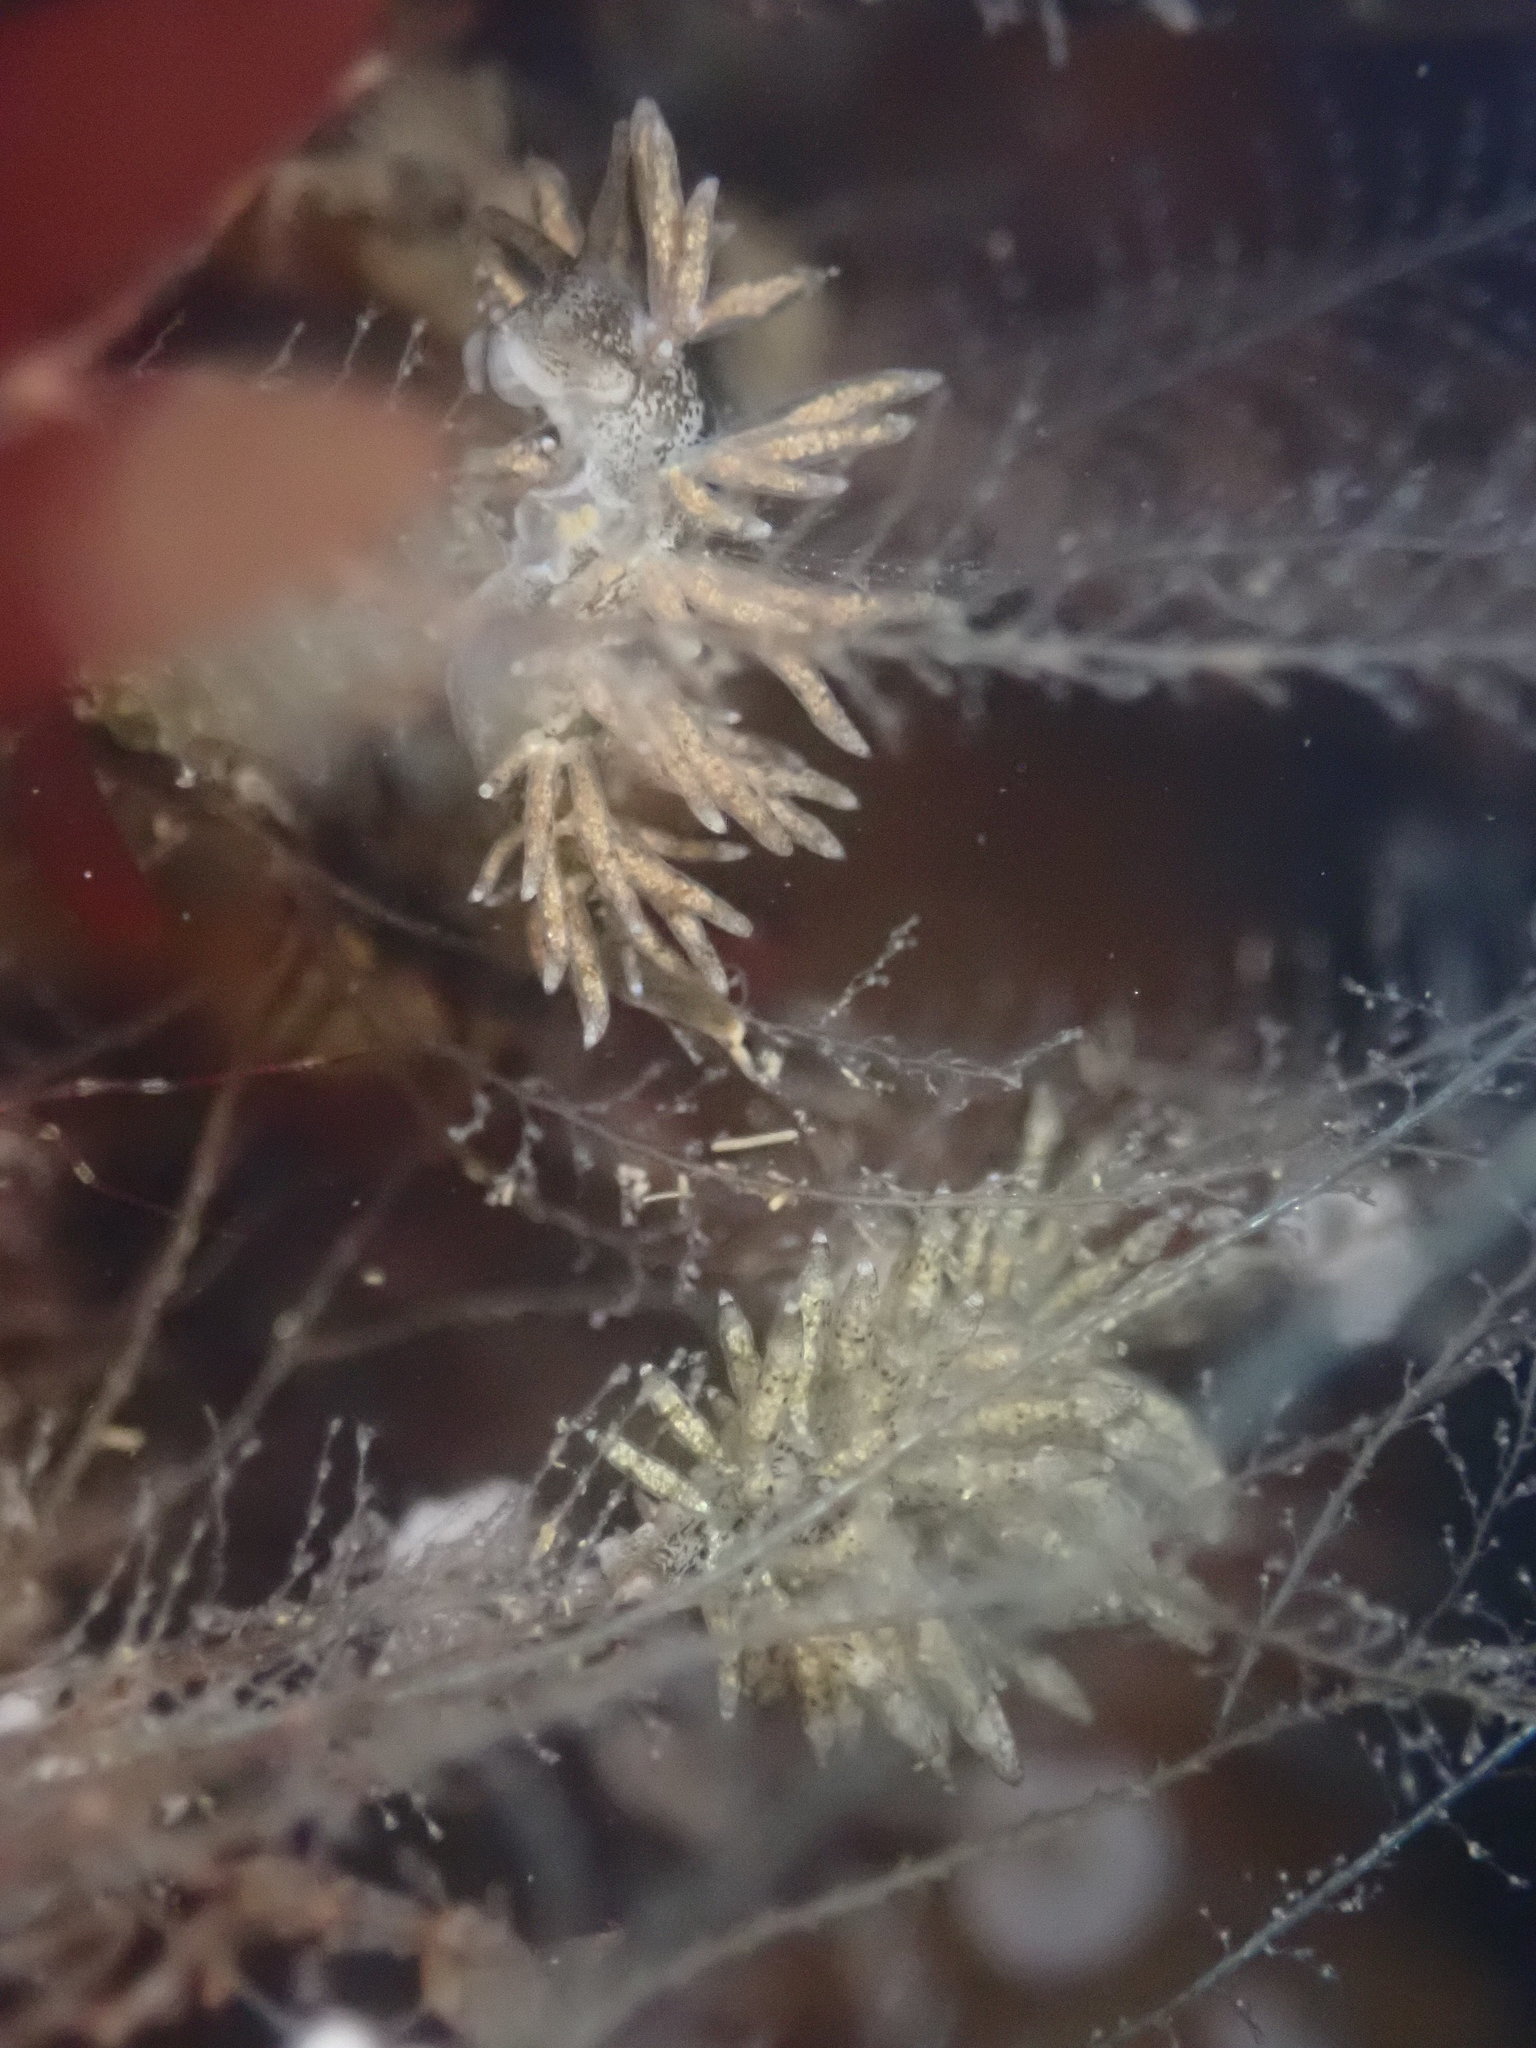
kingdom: Animalia
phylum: Mollusca
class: Gastropoda
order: Nudibranchia
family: Eubranchidae
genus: Eubranchus
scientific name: Eubranchus rustyus
